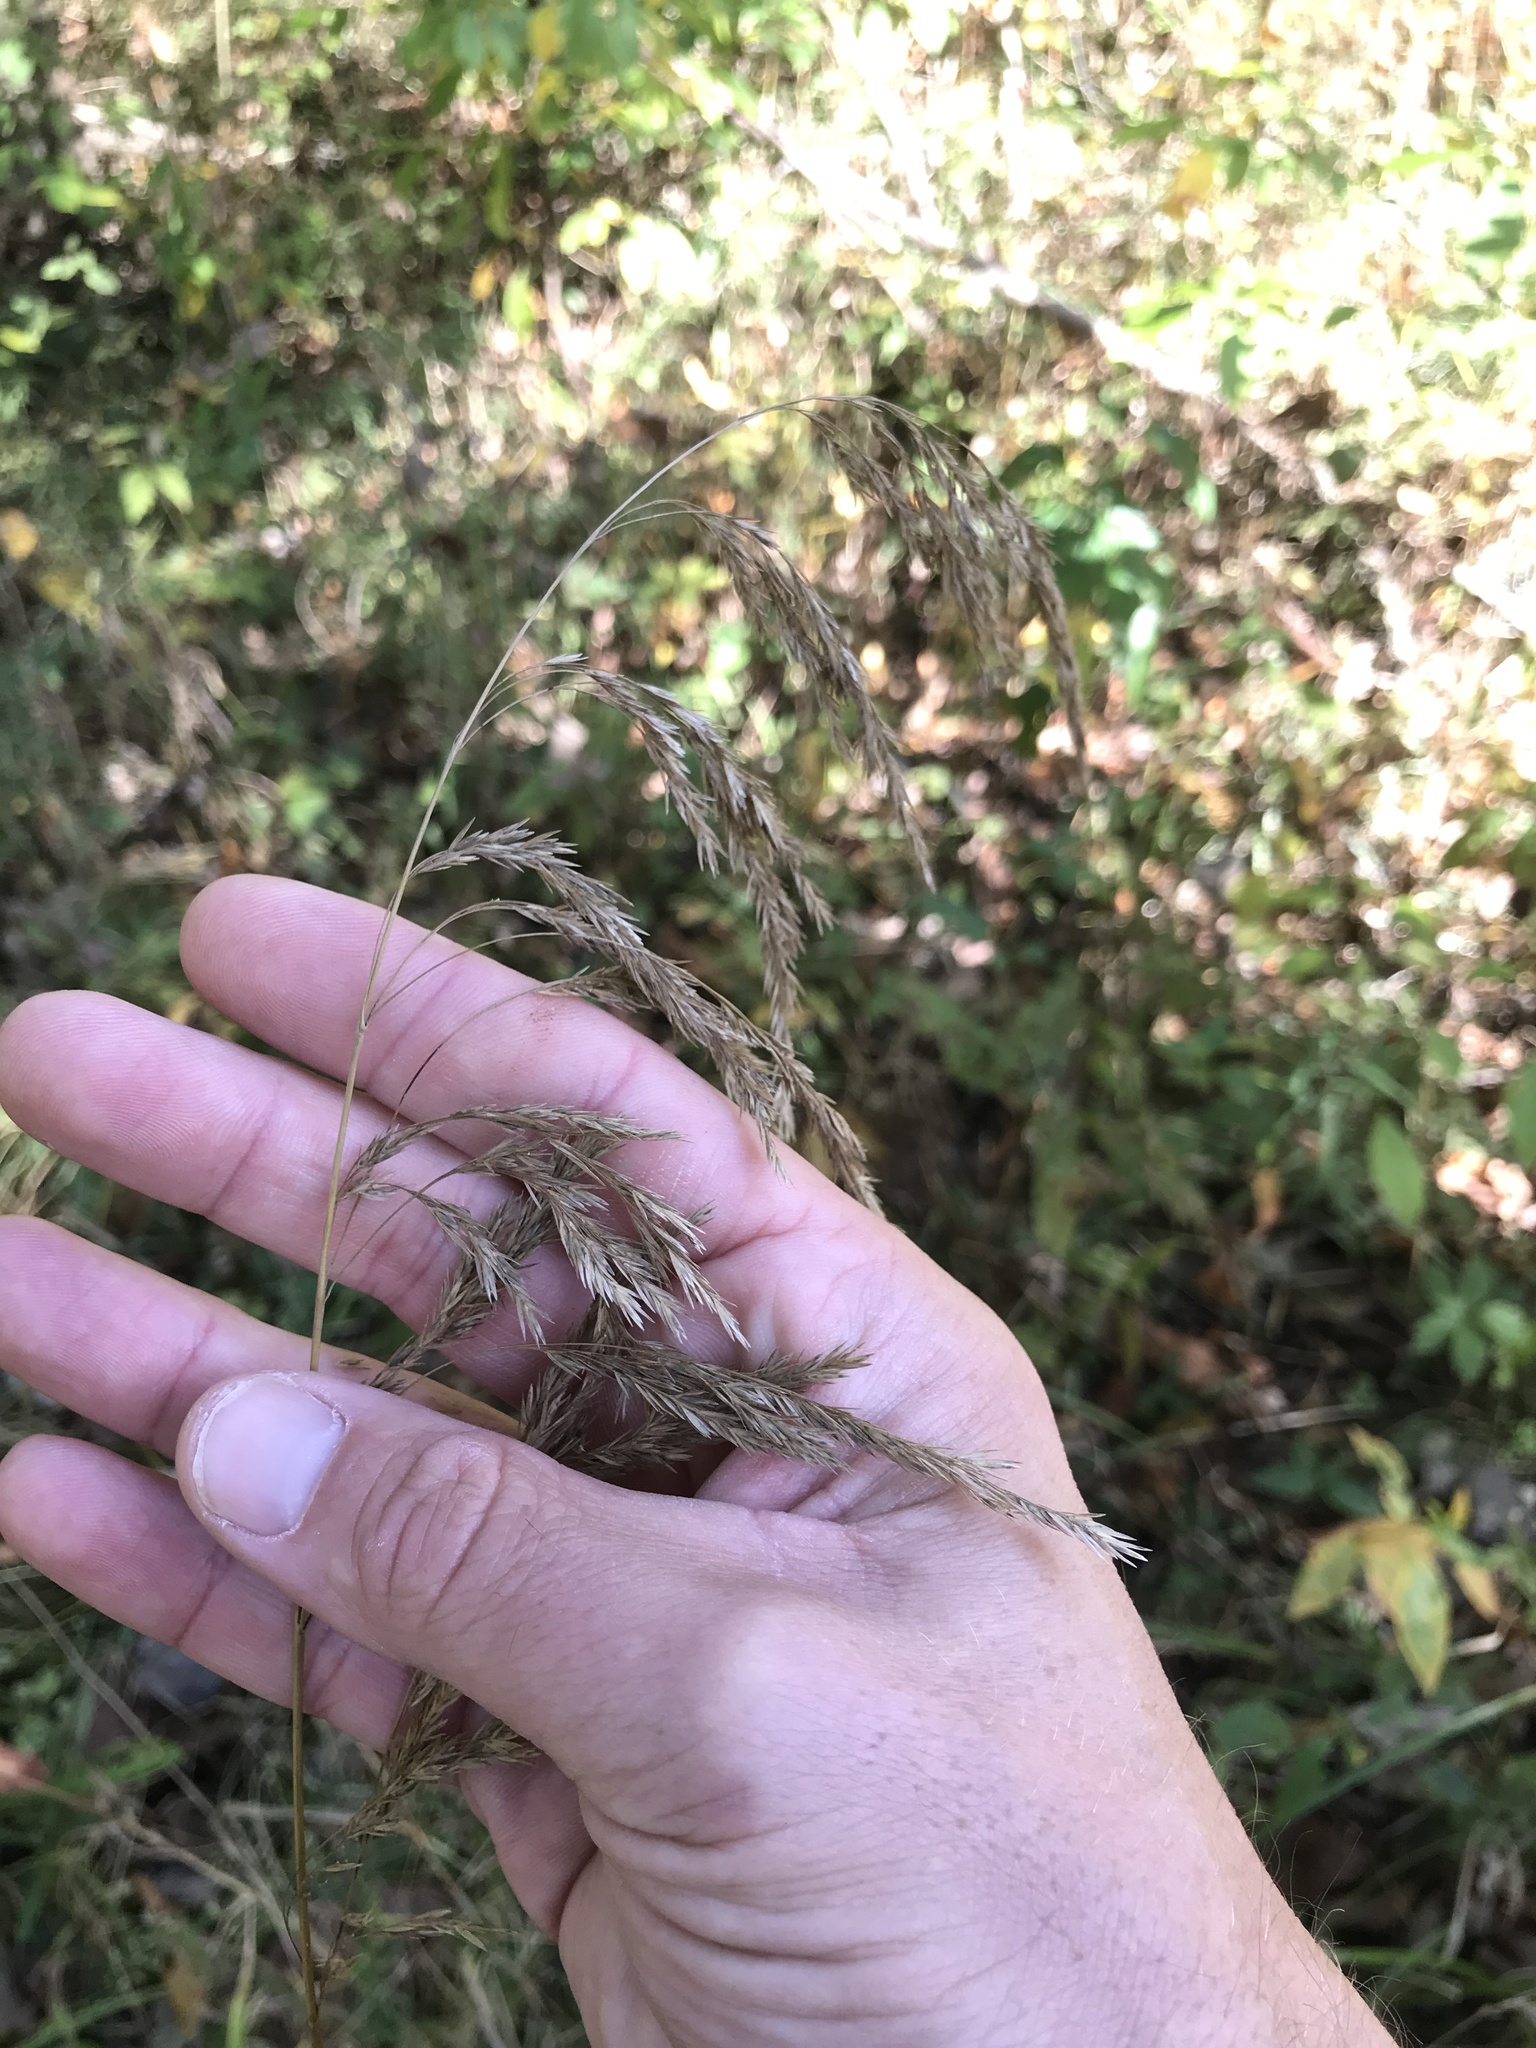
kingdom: Plantae
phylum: Tracheophyta
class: Liliopsida
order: Poales
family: Poaceae
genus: Cinna
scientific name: Cinna arundinacea
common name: Stout woodreed
